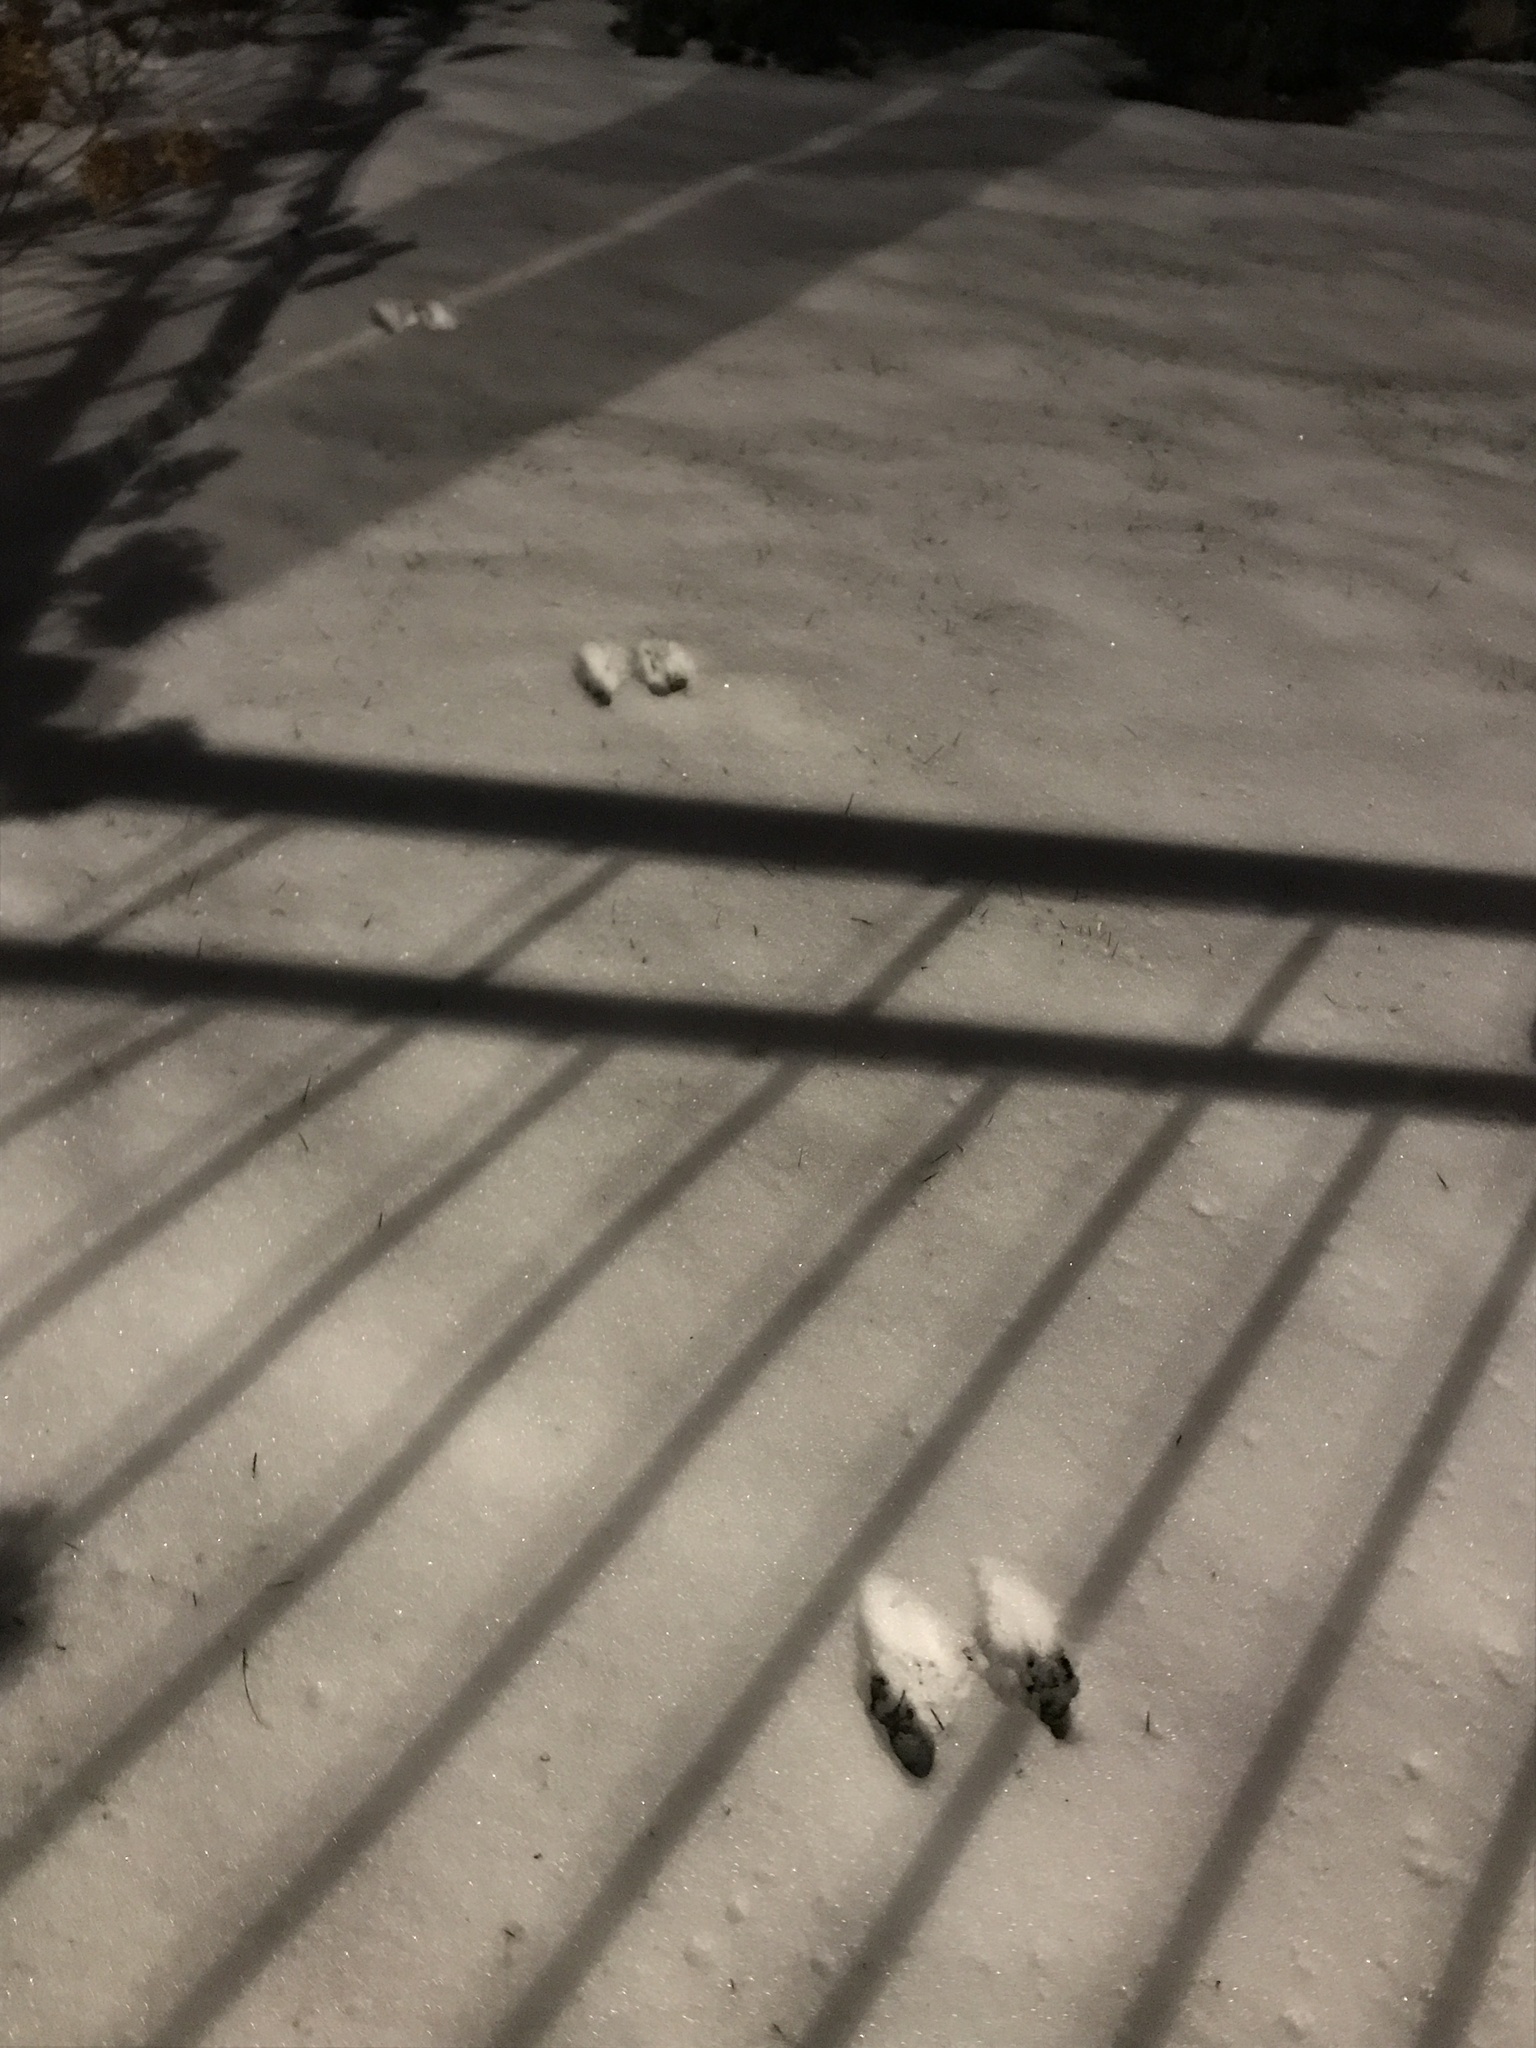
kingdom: Animalia
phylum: Chordata
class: Mammalia
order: Lagomorpha
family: Leporidae
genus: Sylvilagus
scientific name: Sylvilagus floridanus
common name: Eastern cottontail
